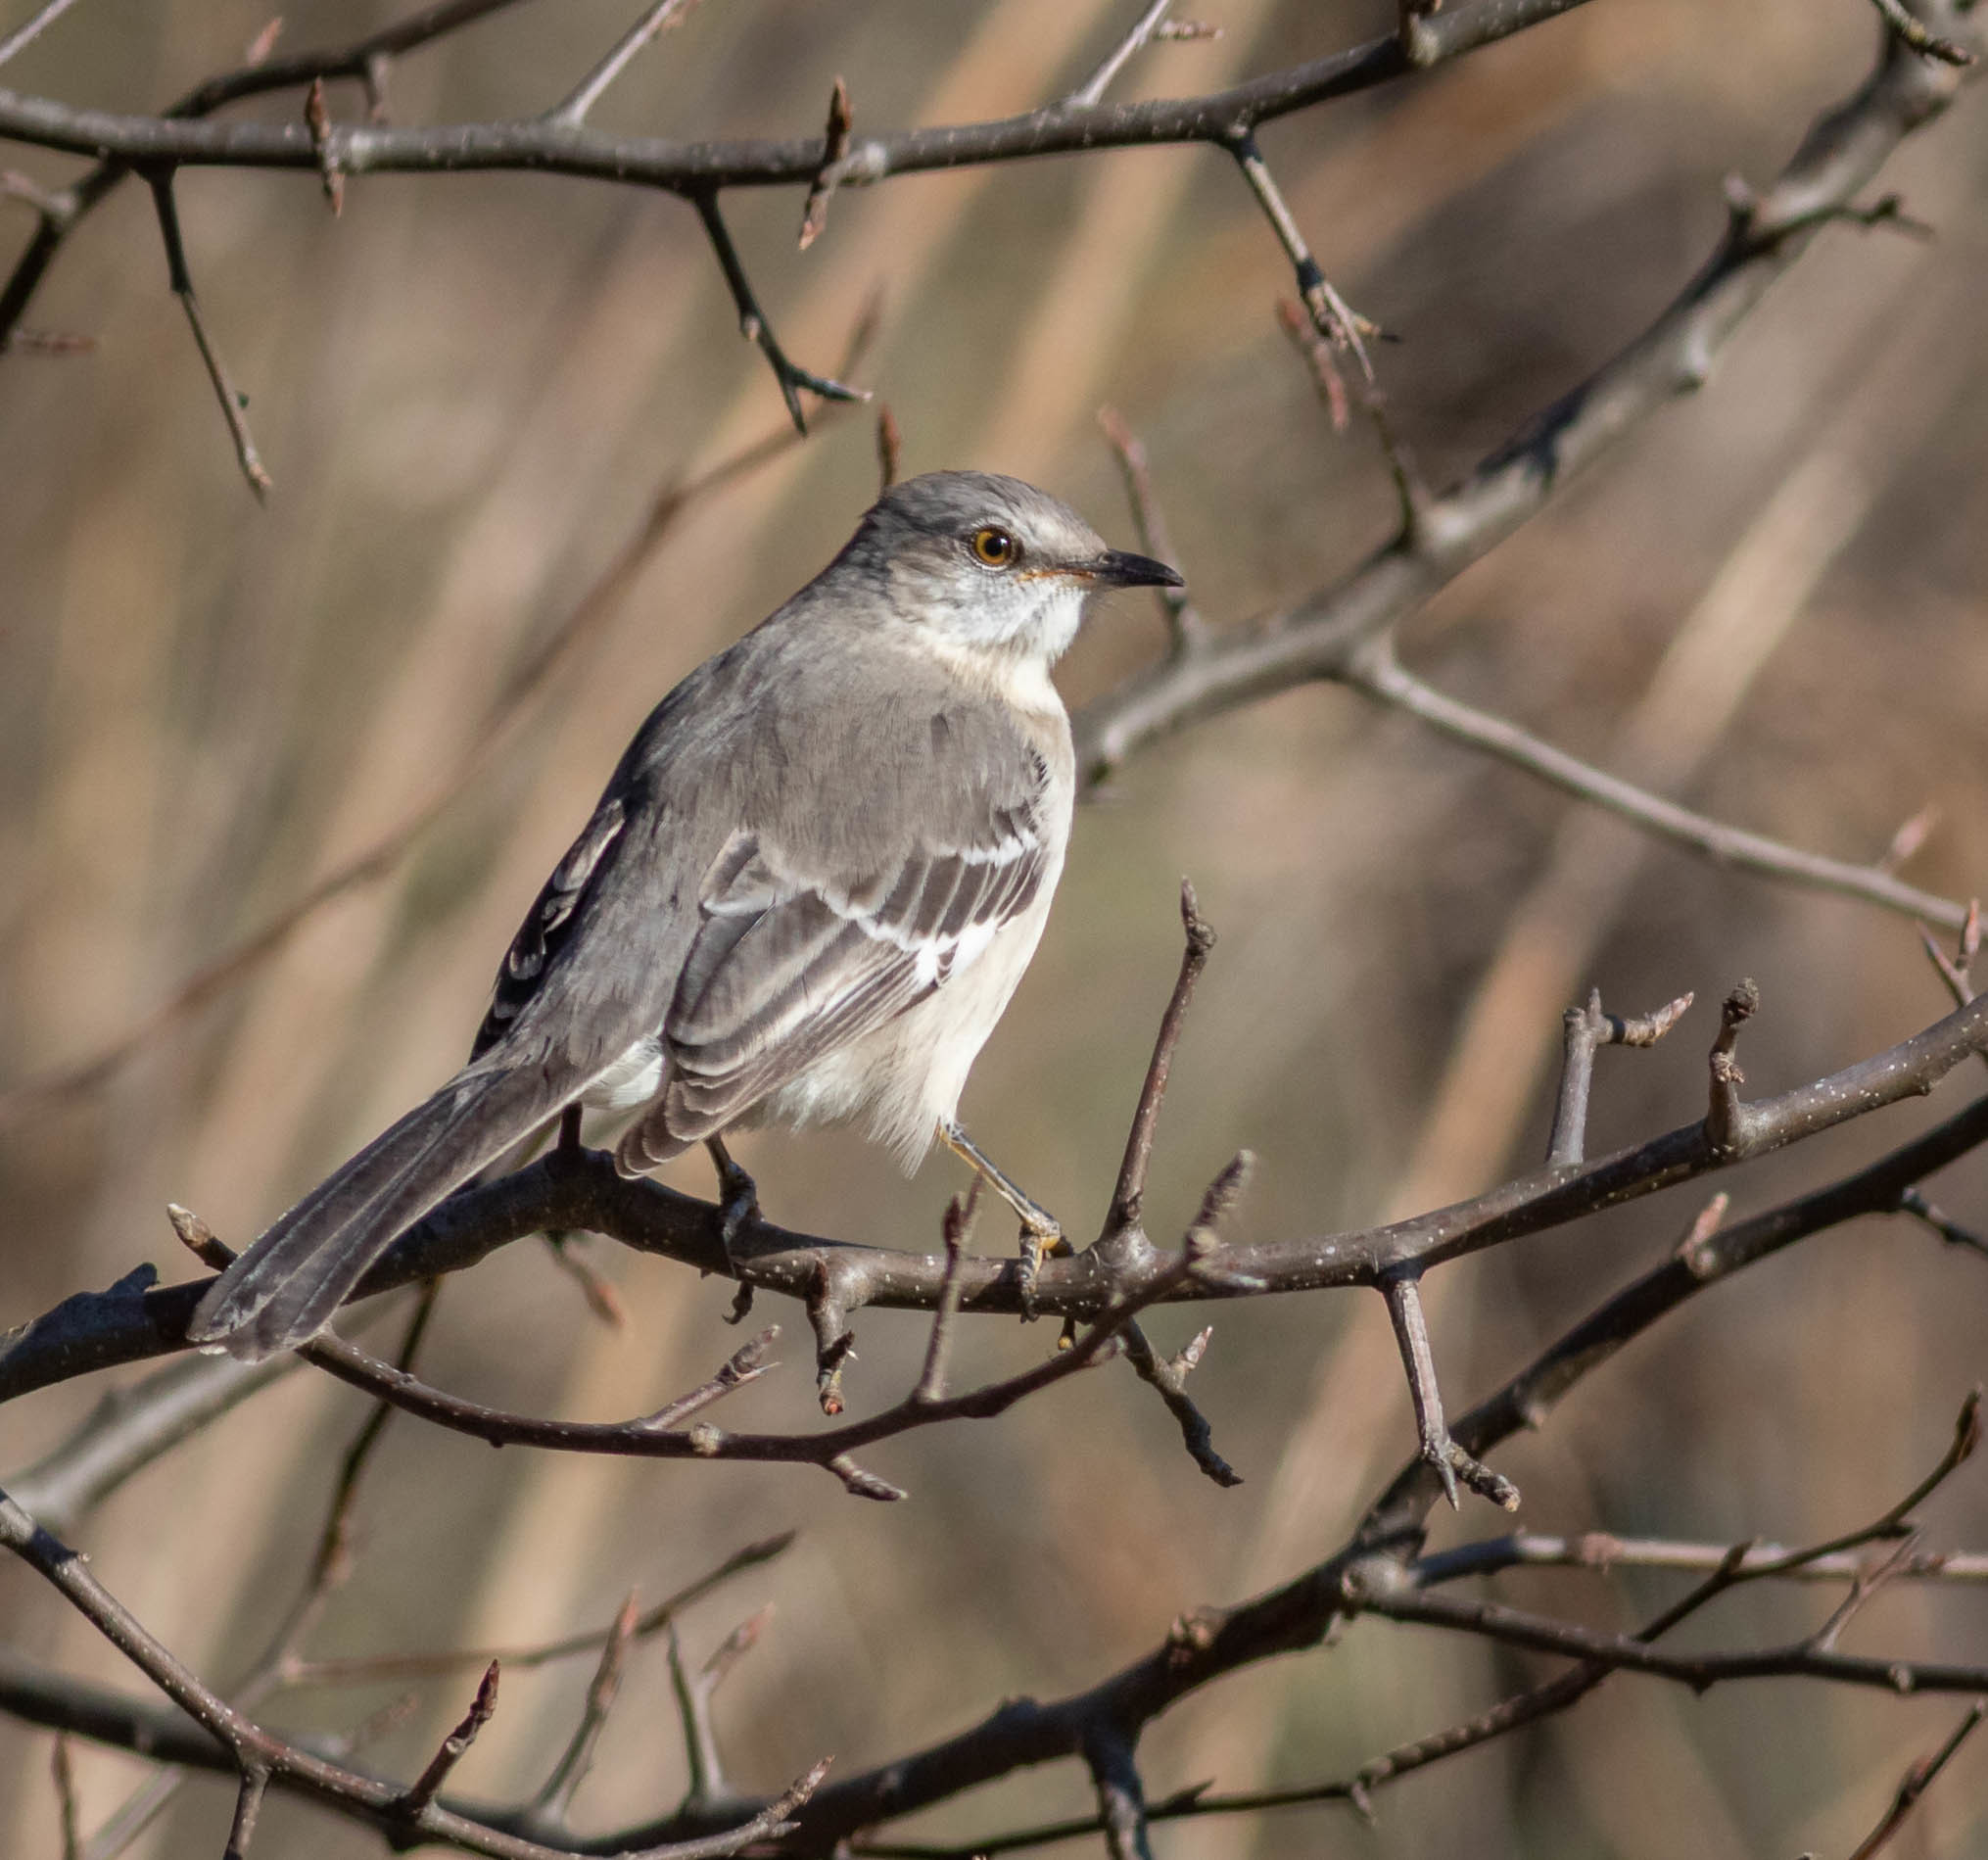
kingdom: Animalia
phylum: Chordata
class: Aves
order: Passeriformes
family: Mimidae
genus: Mimus
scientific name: Mimus polyglottos
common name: Northern mockingbird
